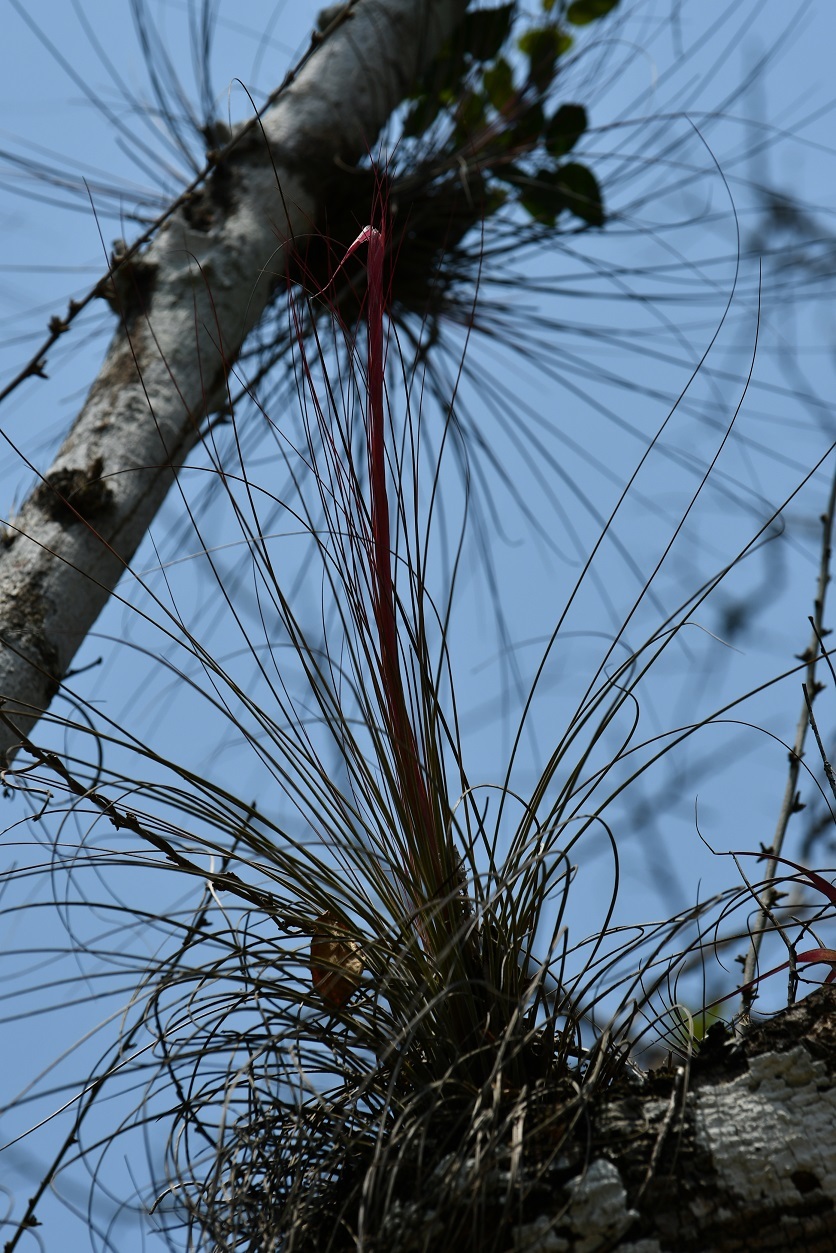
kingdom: Plantae
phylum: Tracheophyta
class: Liliopsida
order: Poales
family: Bromeliaceae
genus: Tillandsia
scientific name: Tillandsia juncea
